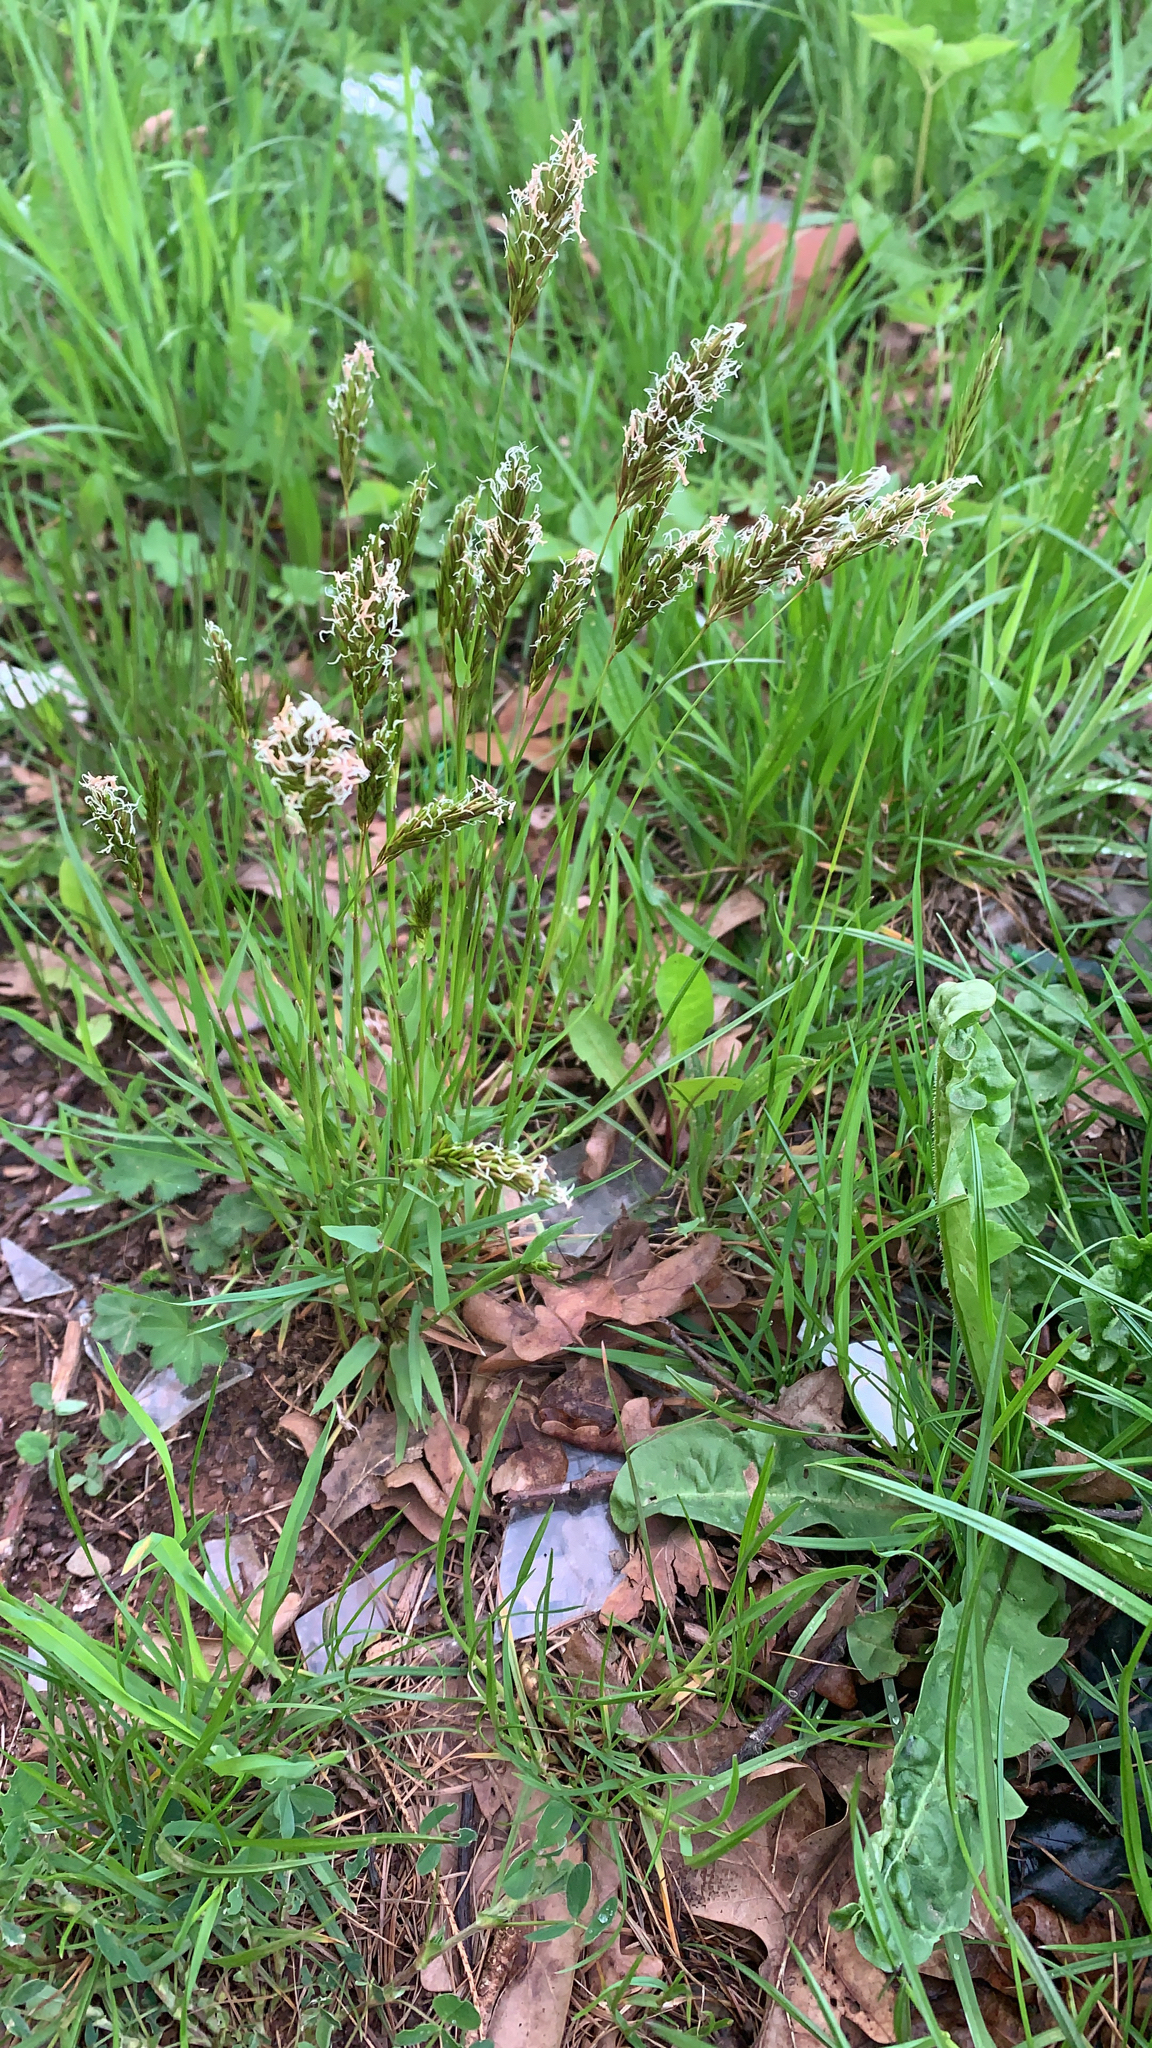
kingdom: Plantae
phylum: Tracheophyta
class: Liliopsida
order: Poales
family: Poaceae
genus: Anthoxanthum
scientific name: Anthoxanthum odoratum
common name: Sweet vernalgrass
